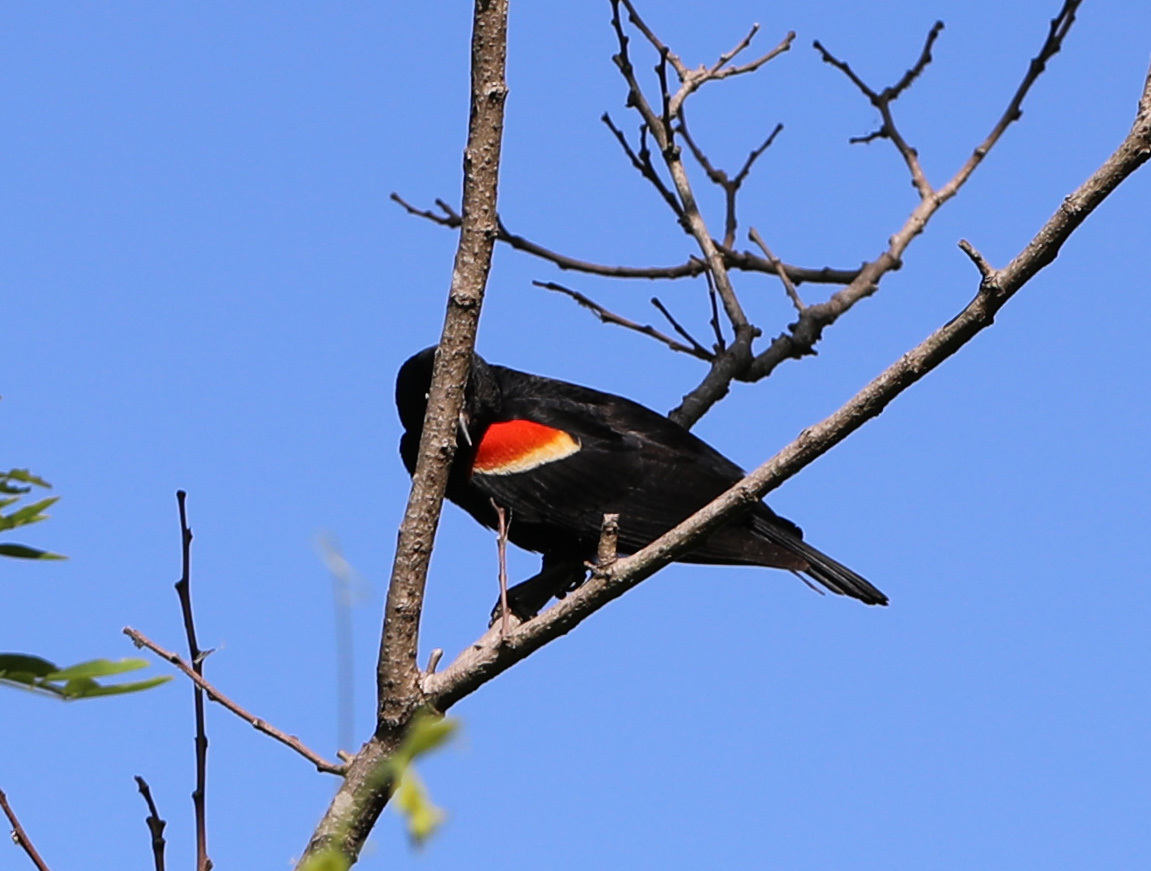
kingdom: Animalia
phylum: Chordata
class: Aves
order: Passeriformes
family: Icteridae
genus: Agelaius
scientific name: Agelaius phoeniceus
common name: Red-winged blackbird
